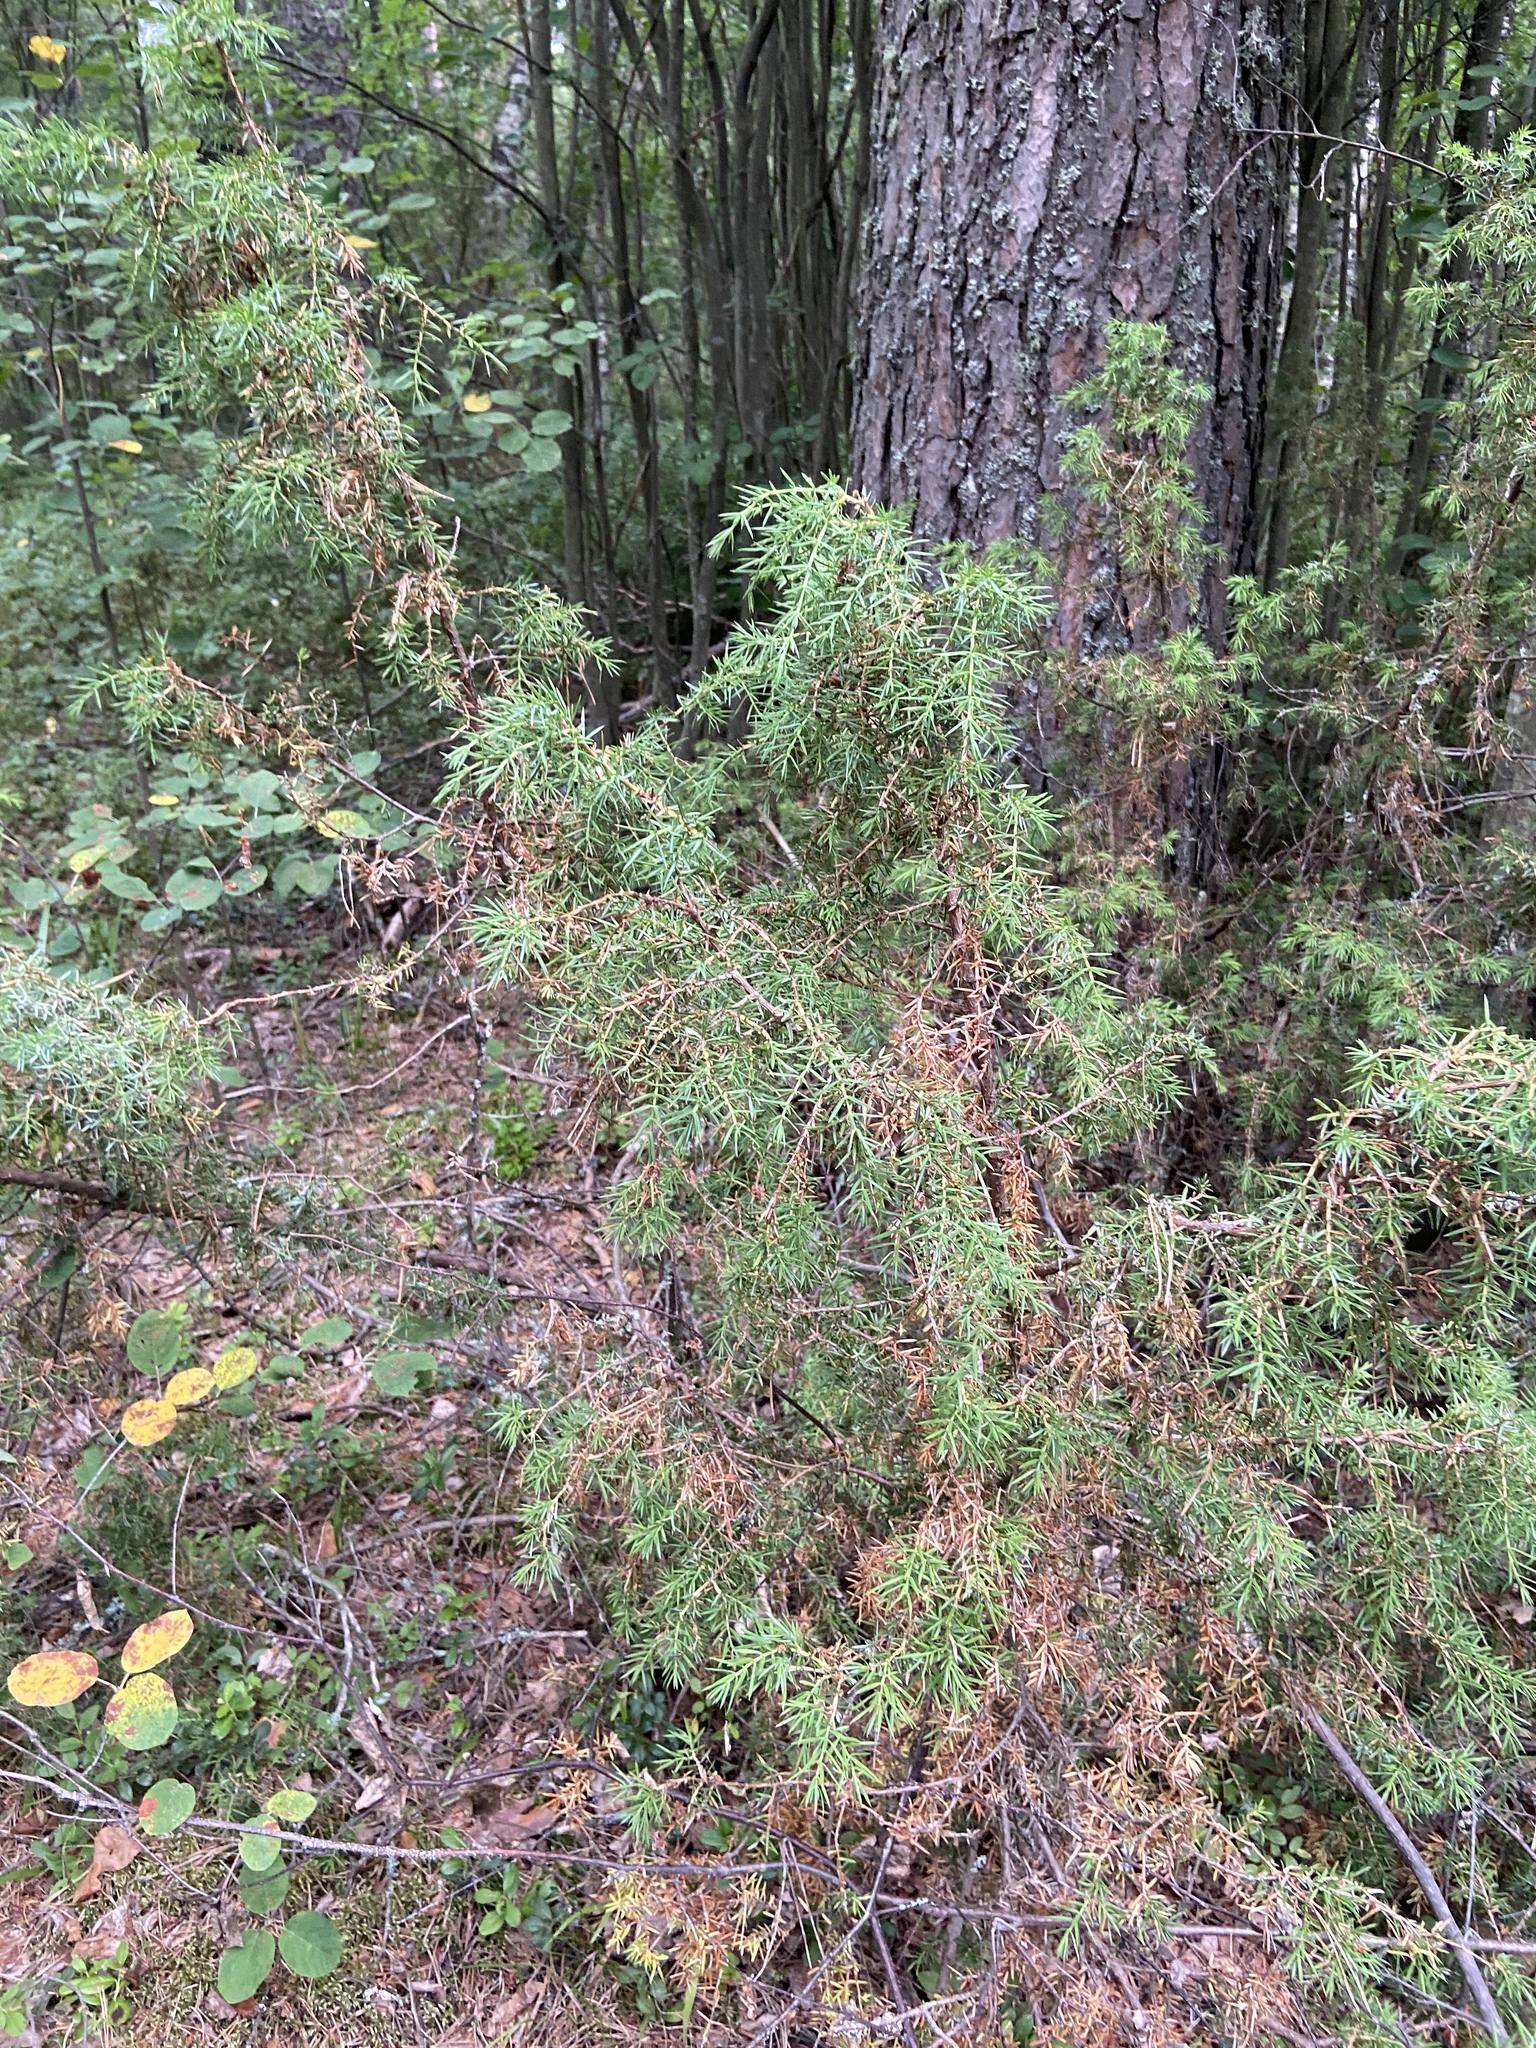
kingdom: Plantae
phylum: Tracheophyta
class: Pinopsida
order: Pinales
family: Cupressaceae
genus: Juniperus
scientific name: Juniperus communis
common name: Common juniper
